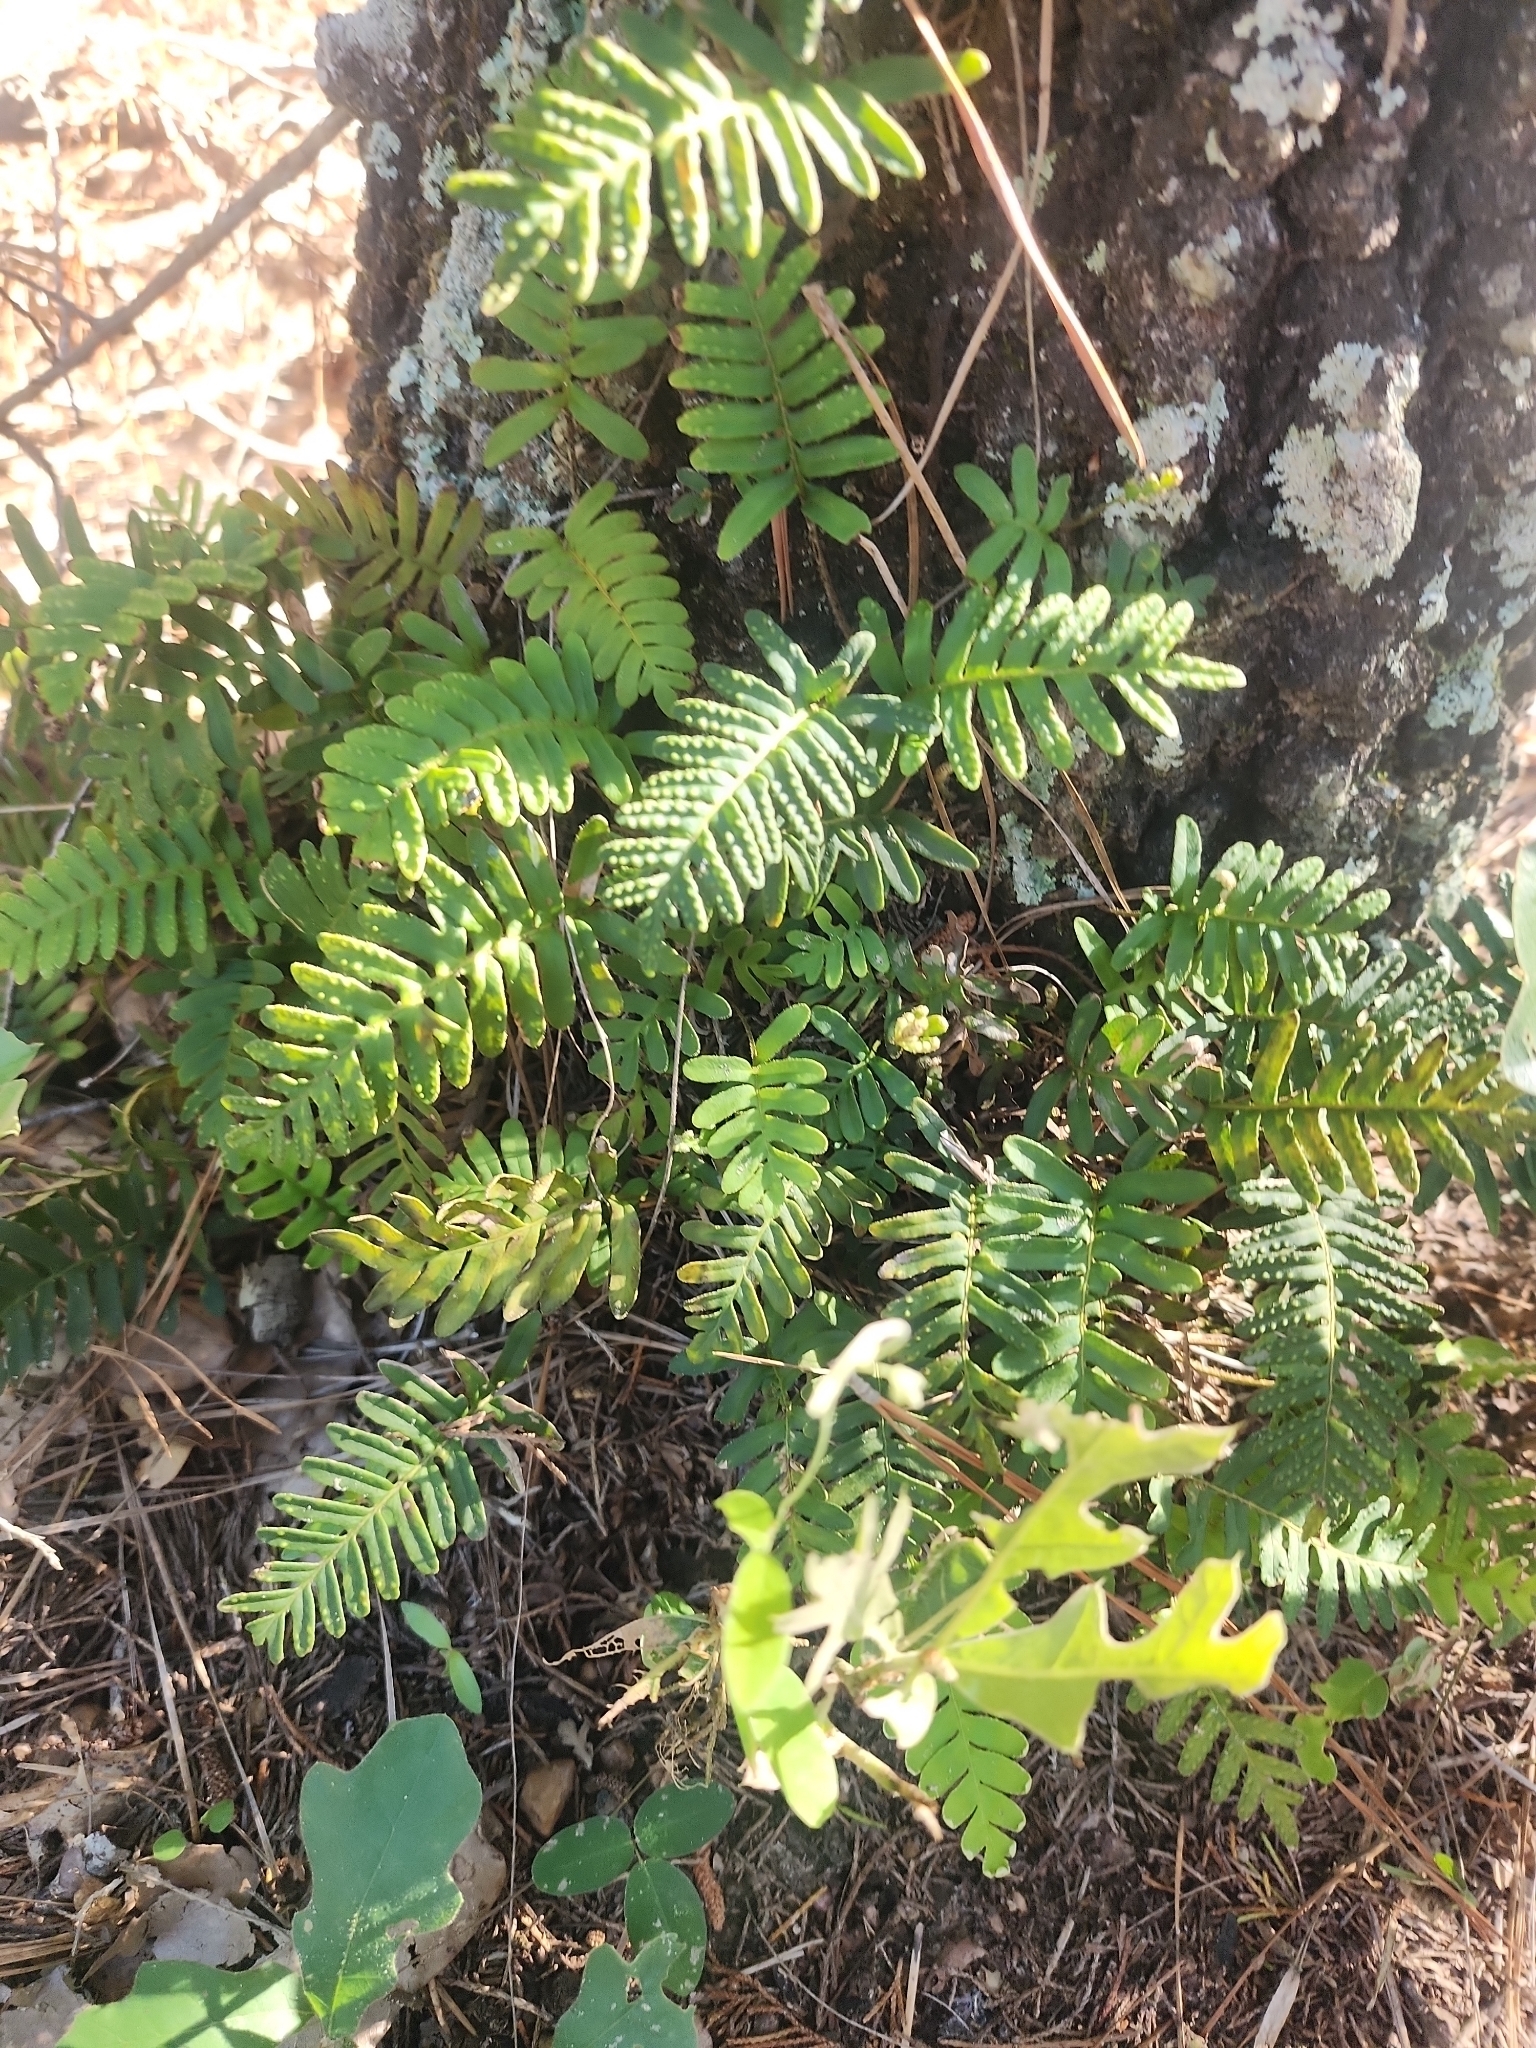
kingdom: Plantae
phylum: Tracheophyta
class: Polypodiopsida
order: Polypodiales
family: Polypodiaceae
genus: Pleopeltis
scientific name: Pleopeltis michauxiana
